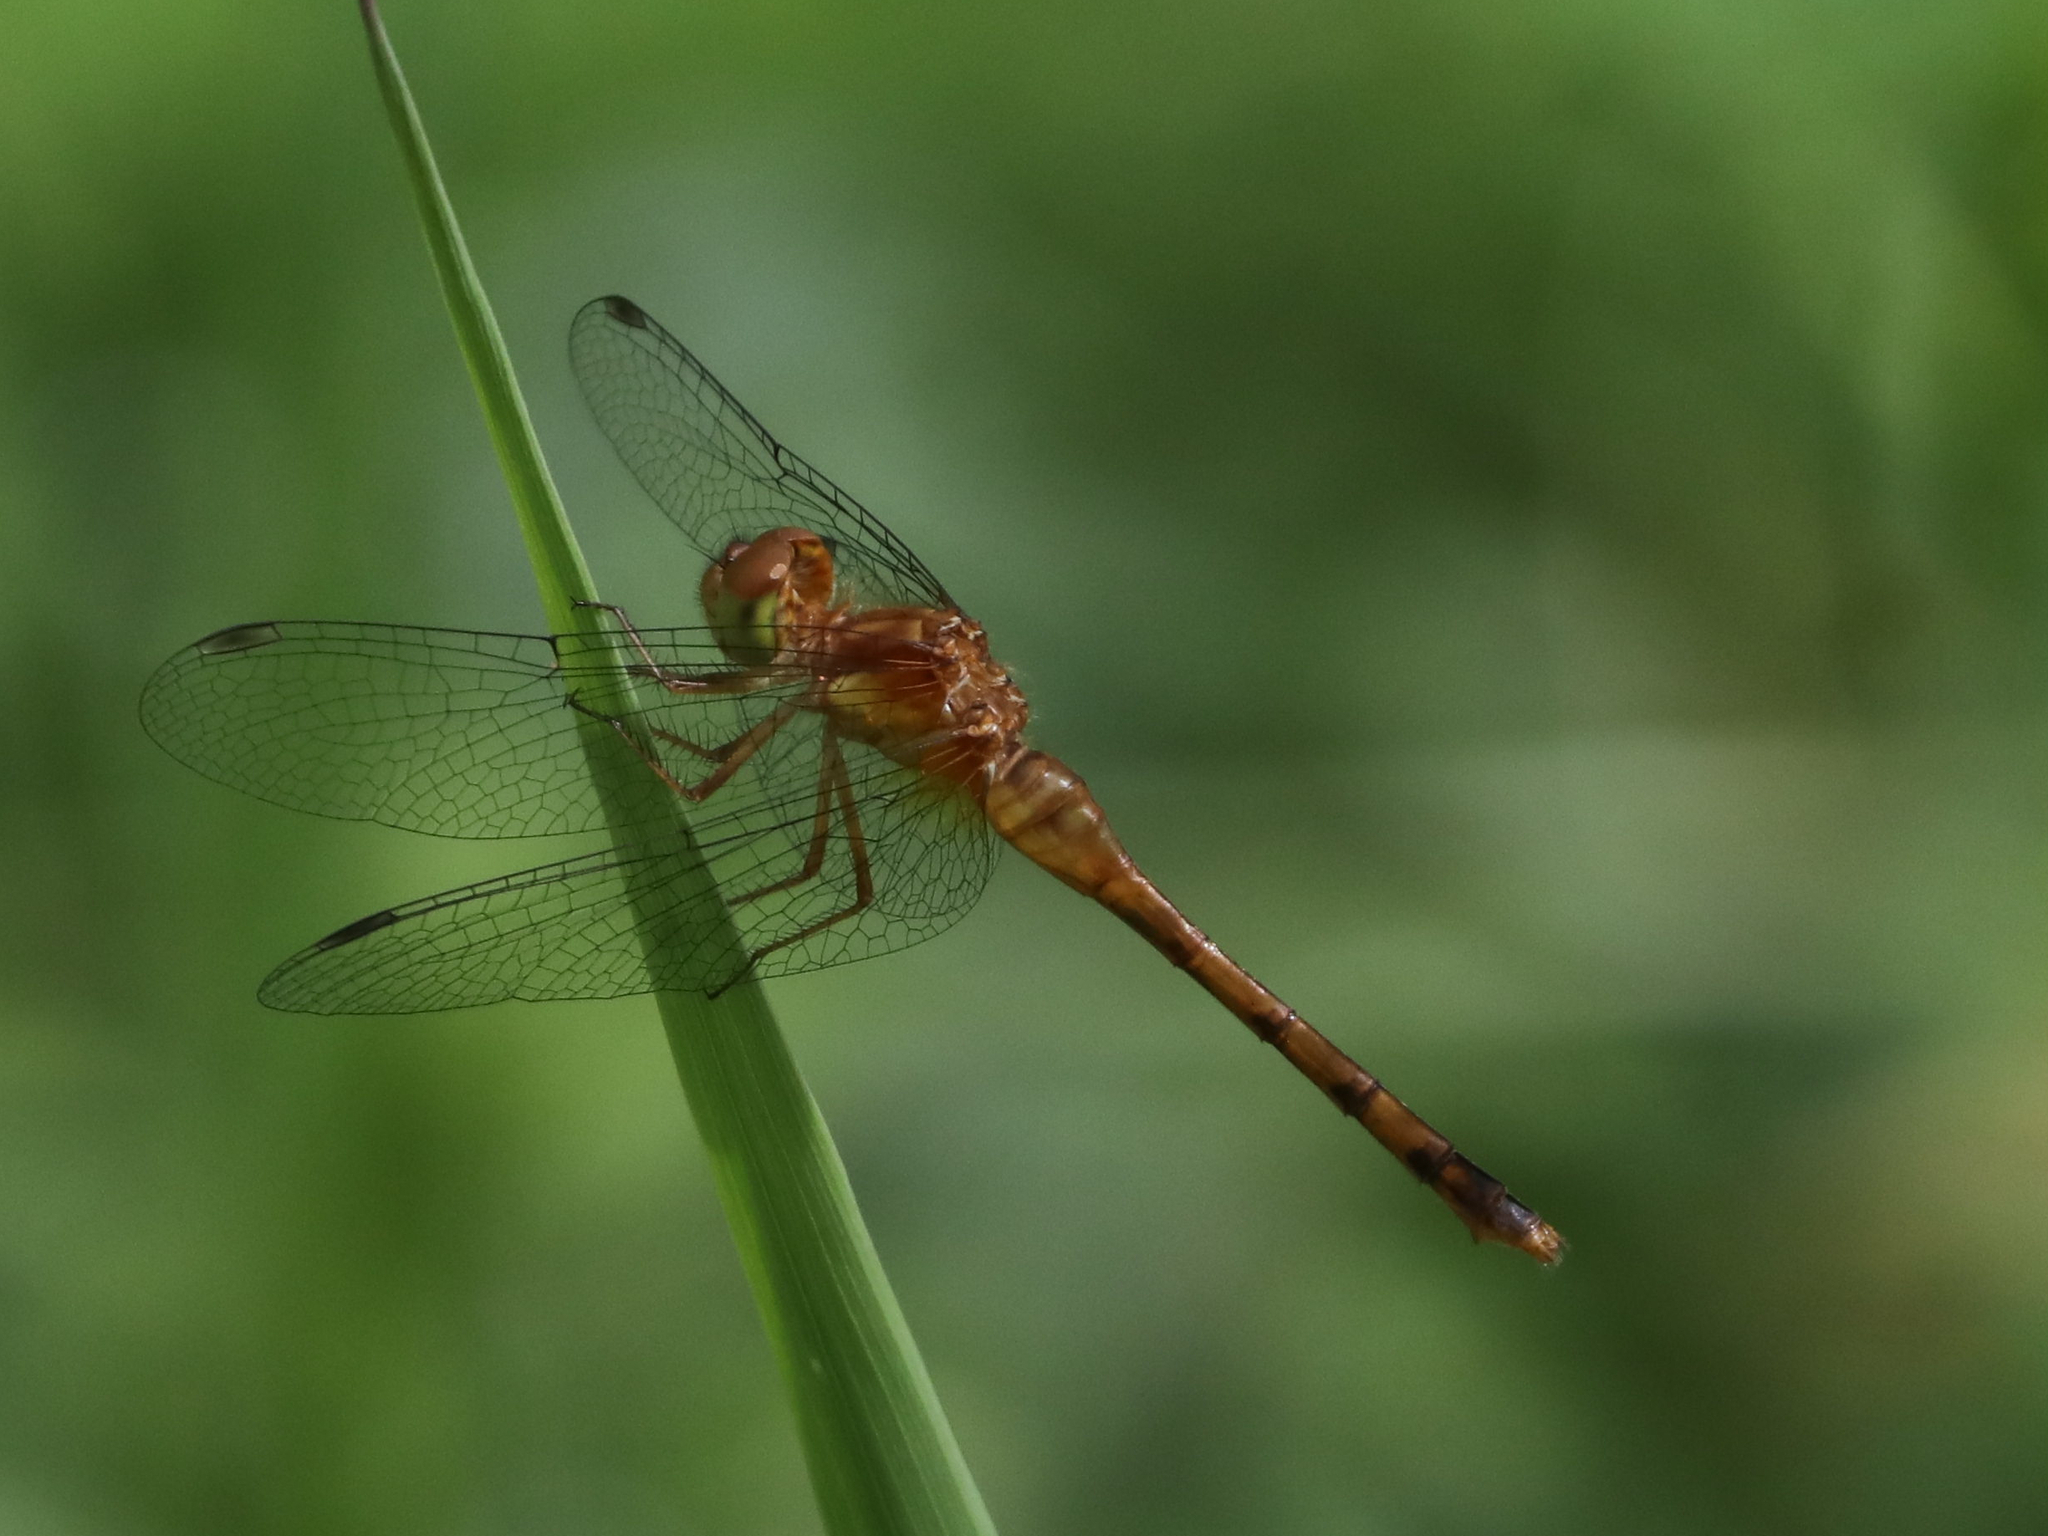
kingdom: Animalia
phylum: Arthropoda
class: Insecta
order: Odonata
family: Libellulidae
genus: Sympetrum
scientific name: Sympetrum vicinum
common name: Autumn meadowhawk
